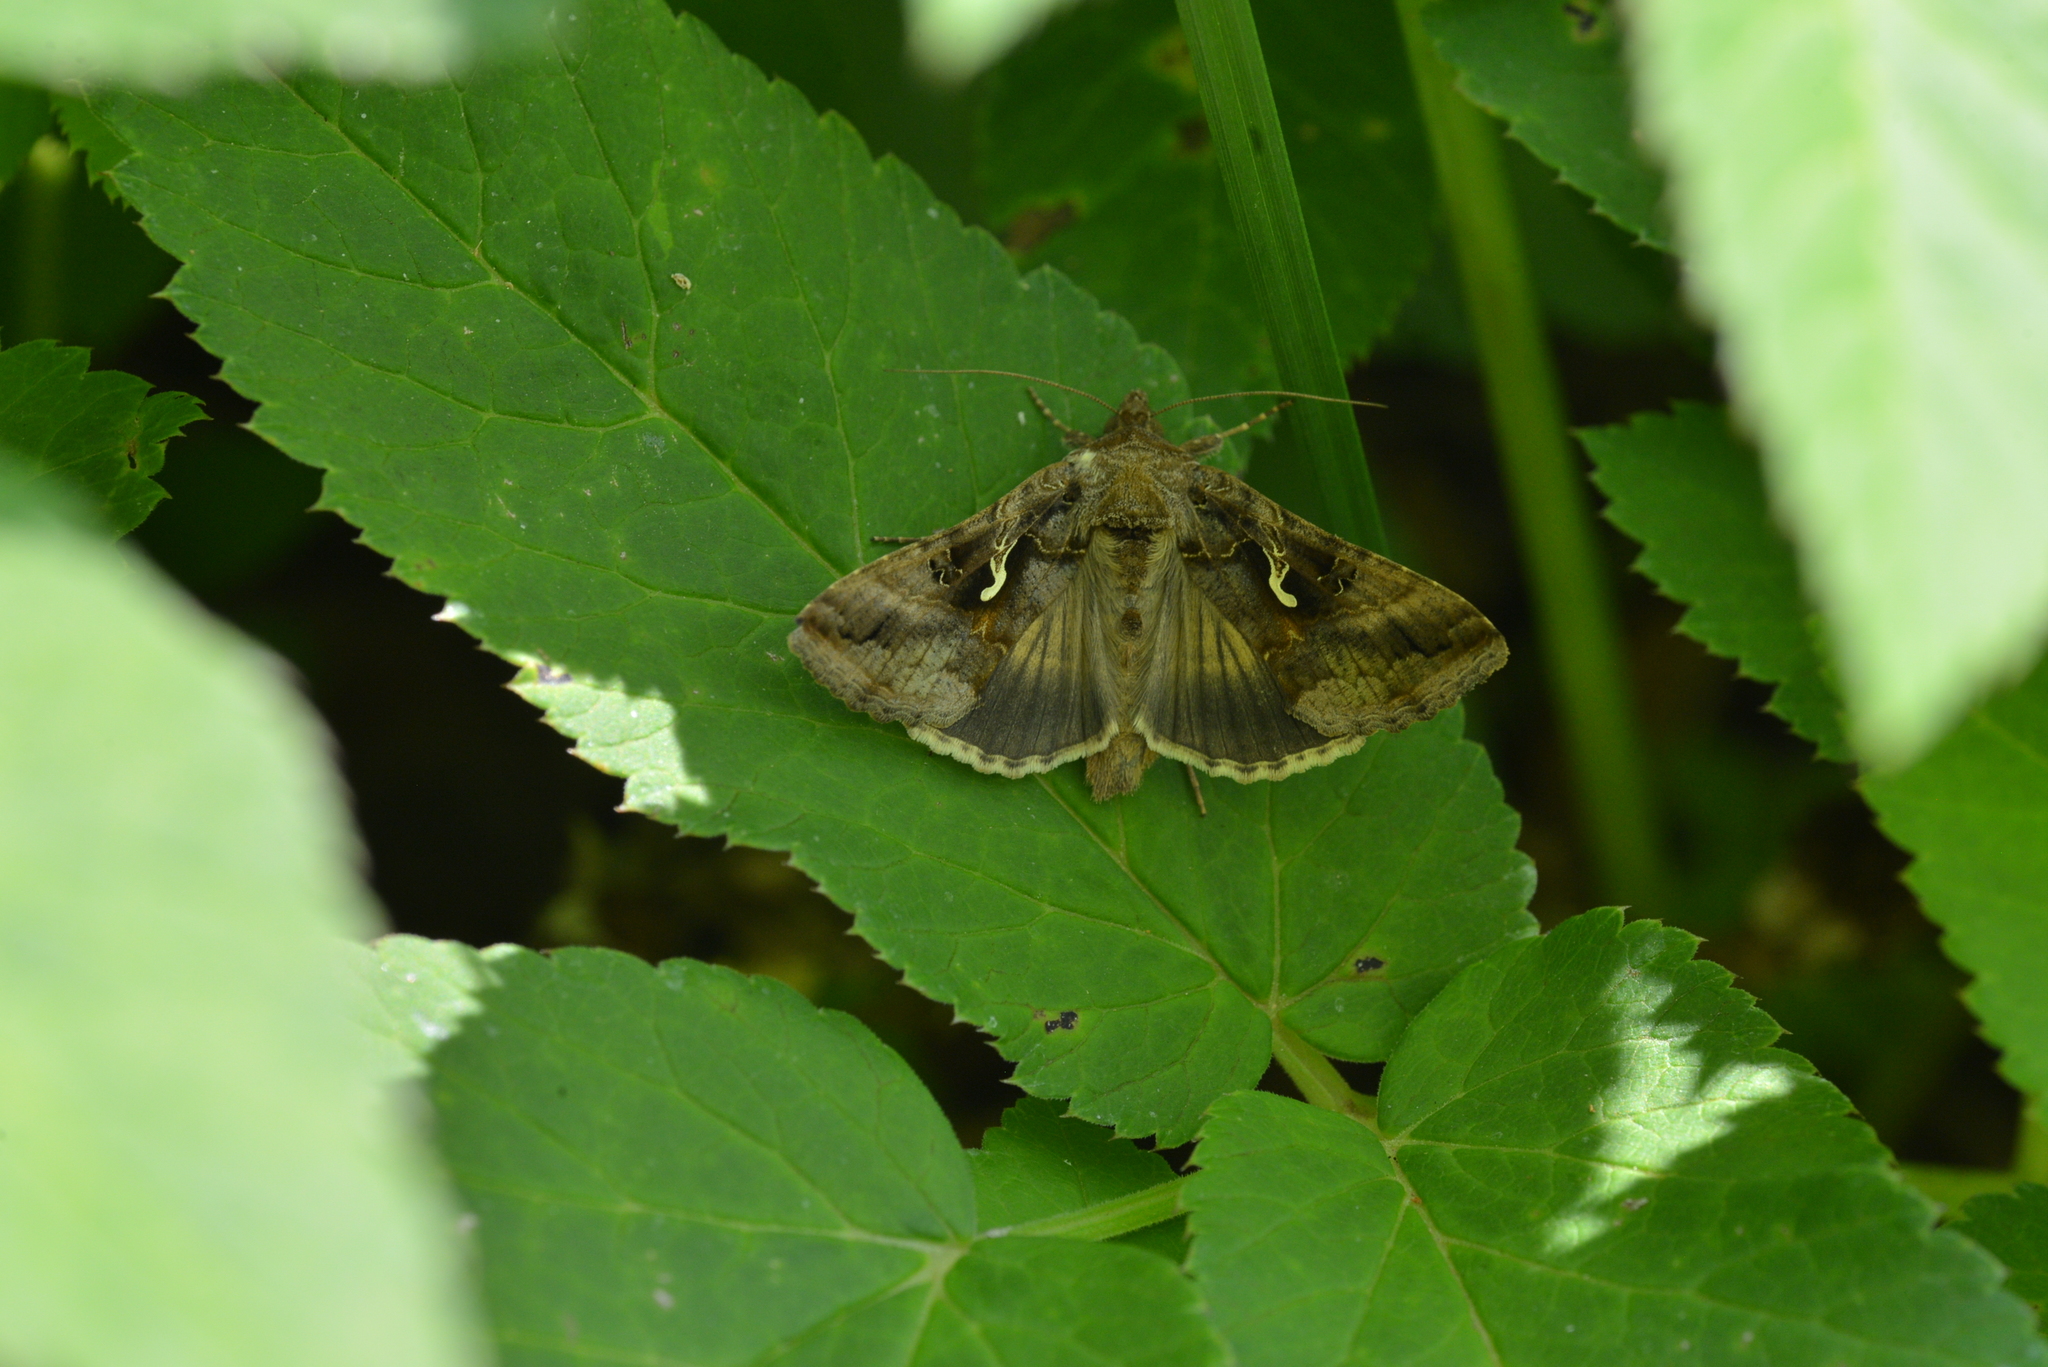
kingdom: Animalia
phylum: Arthropoda
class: Insecta
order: Lepidoptera
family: Noctuidae
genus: Autographa
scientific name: Autographa gamma
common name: Silver y
